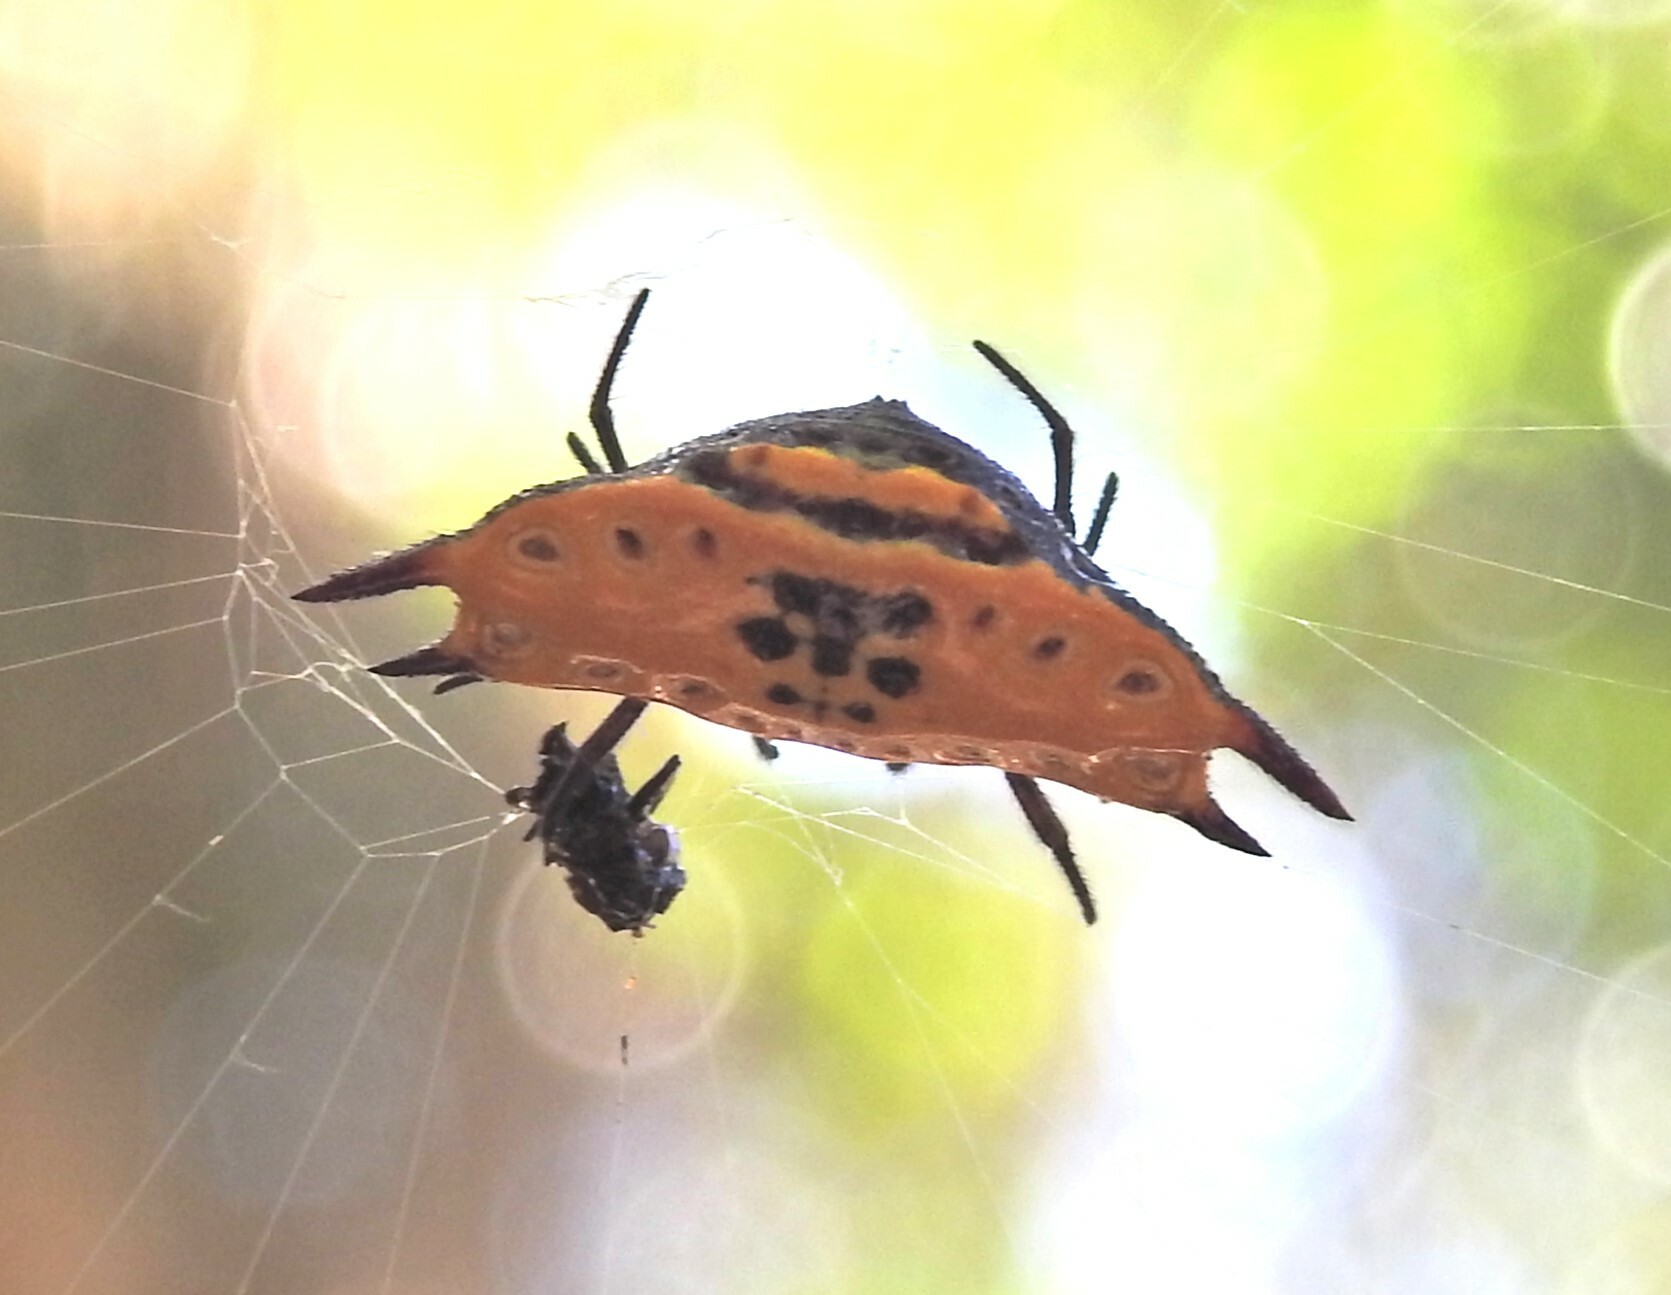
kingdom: Animalia
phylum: Arthropoda
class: Arachnida
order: Araneae
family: Araneidae
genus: Gasteracantha
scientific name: Gasteracantha quadrispinosa
